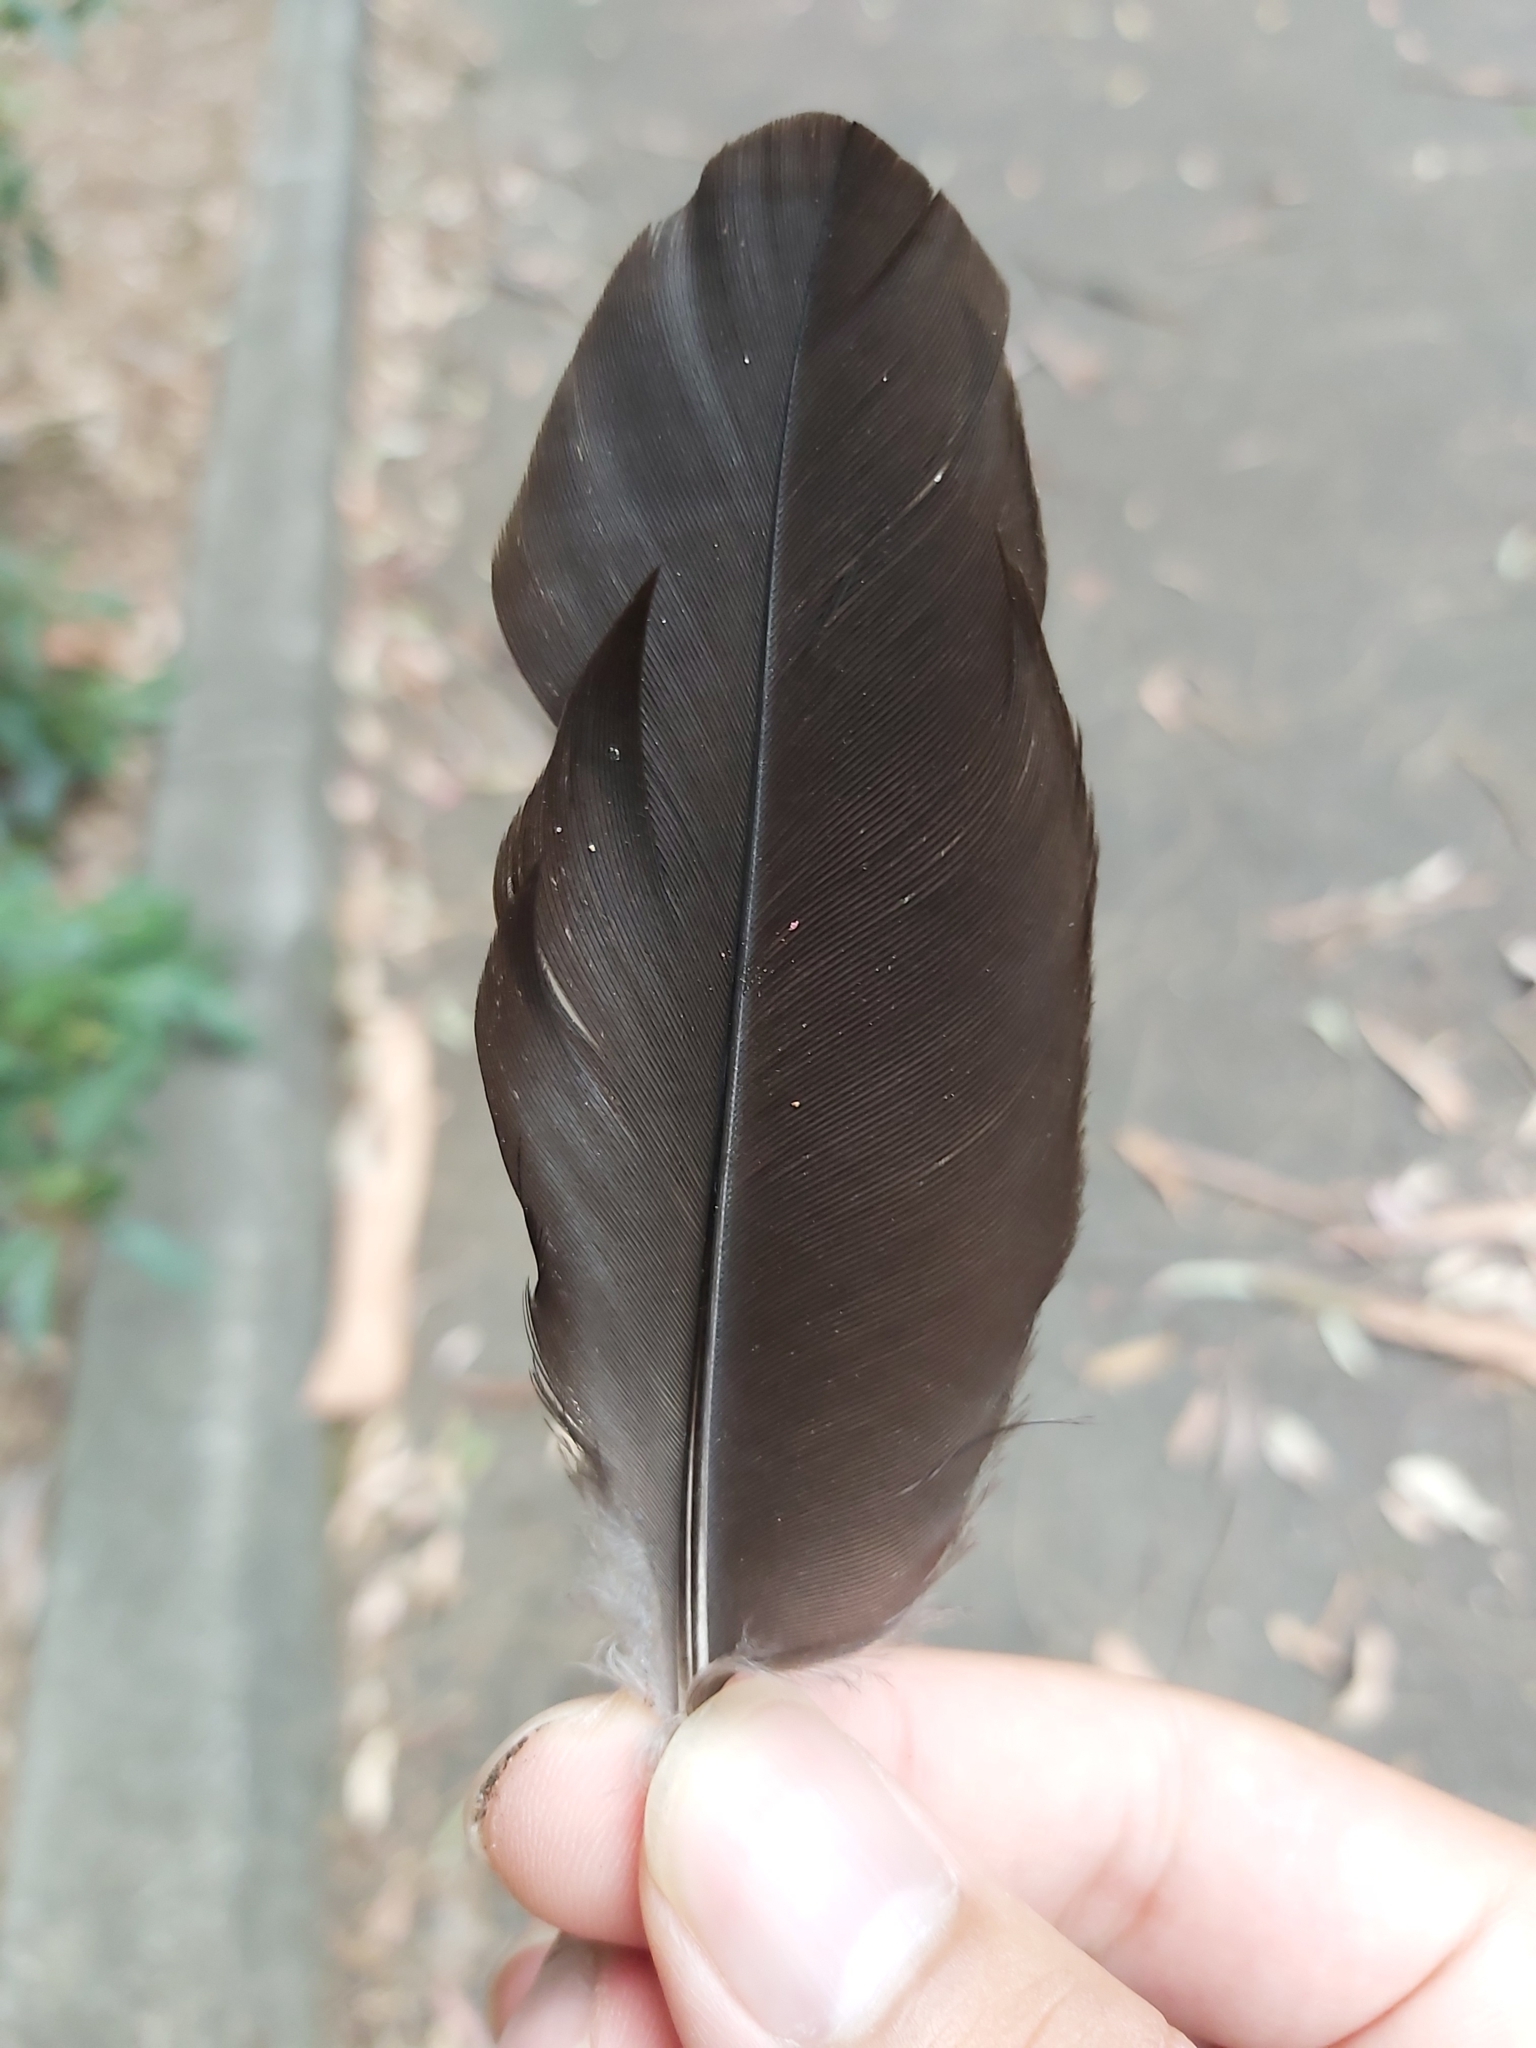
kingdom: Animalia
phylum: Chordata
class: Aves
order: Passeriformes
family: Cracticidae
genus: Gymnorhina
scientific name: Gymnorhina tibicen
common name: Australian magpie
